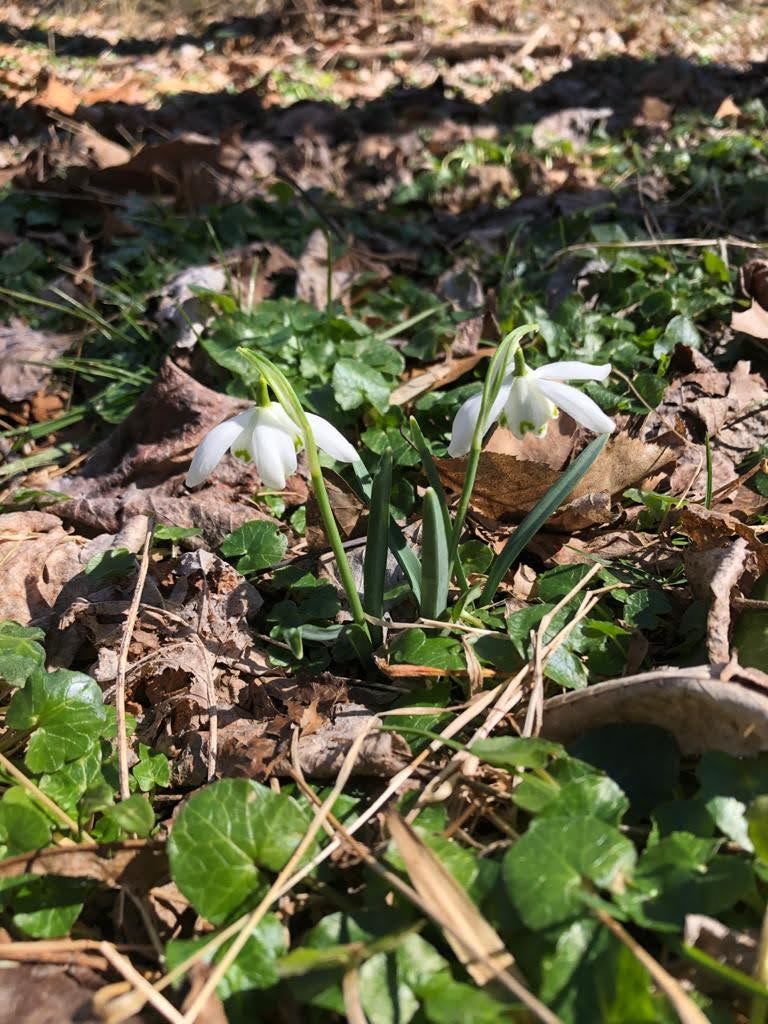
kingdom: Plantae
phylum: Tracheophyta
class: Liliopsida
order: Asparagales
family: Amaryllidaceae
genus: Galanthus
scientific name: Galanthus nivalis
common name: Snowdrop
